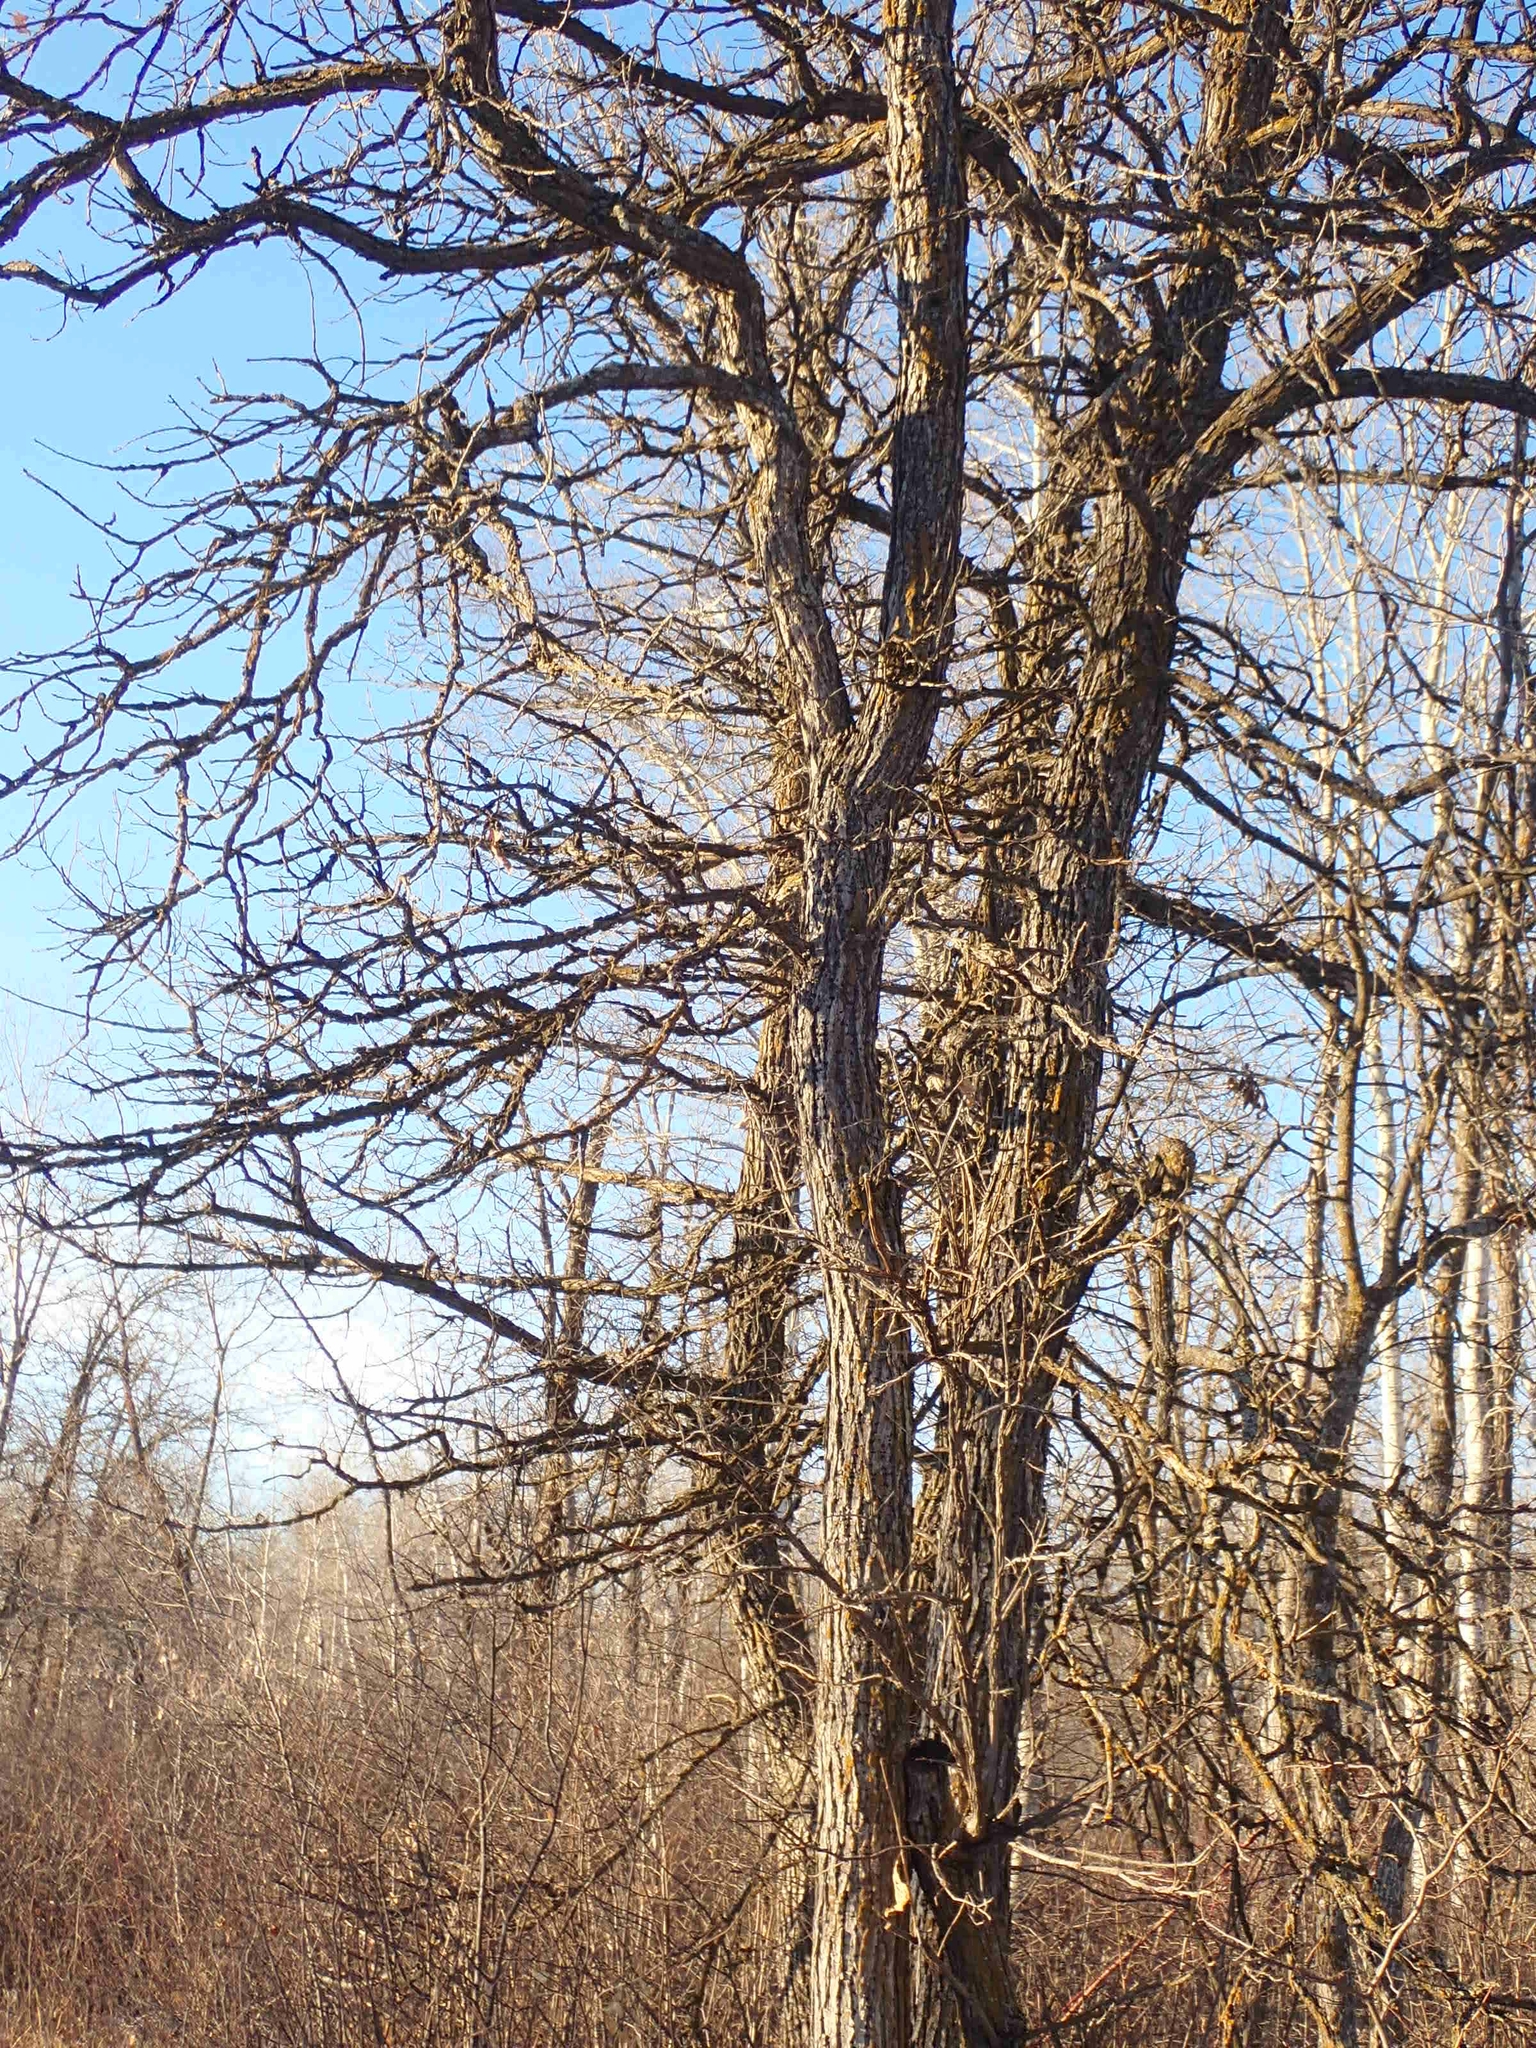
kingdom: Plantae
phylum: Tracheophyta
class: Magnoliopsida
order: Fagales
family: Fagaceae
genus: Quercus
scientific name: Quercus macrocarpa
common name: Bur oak
